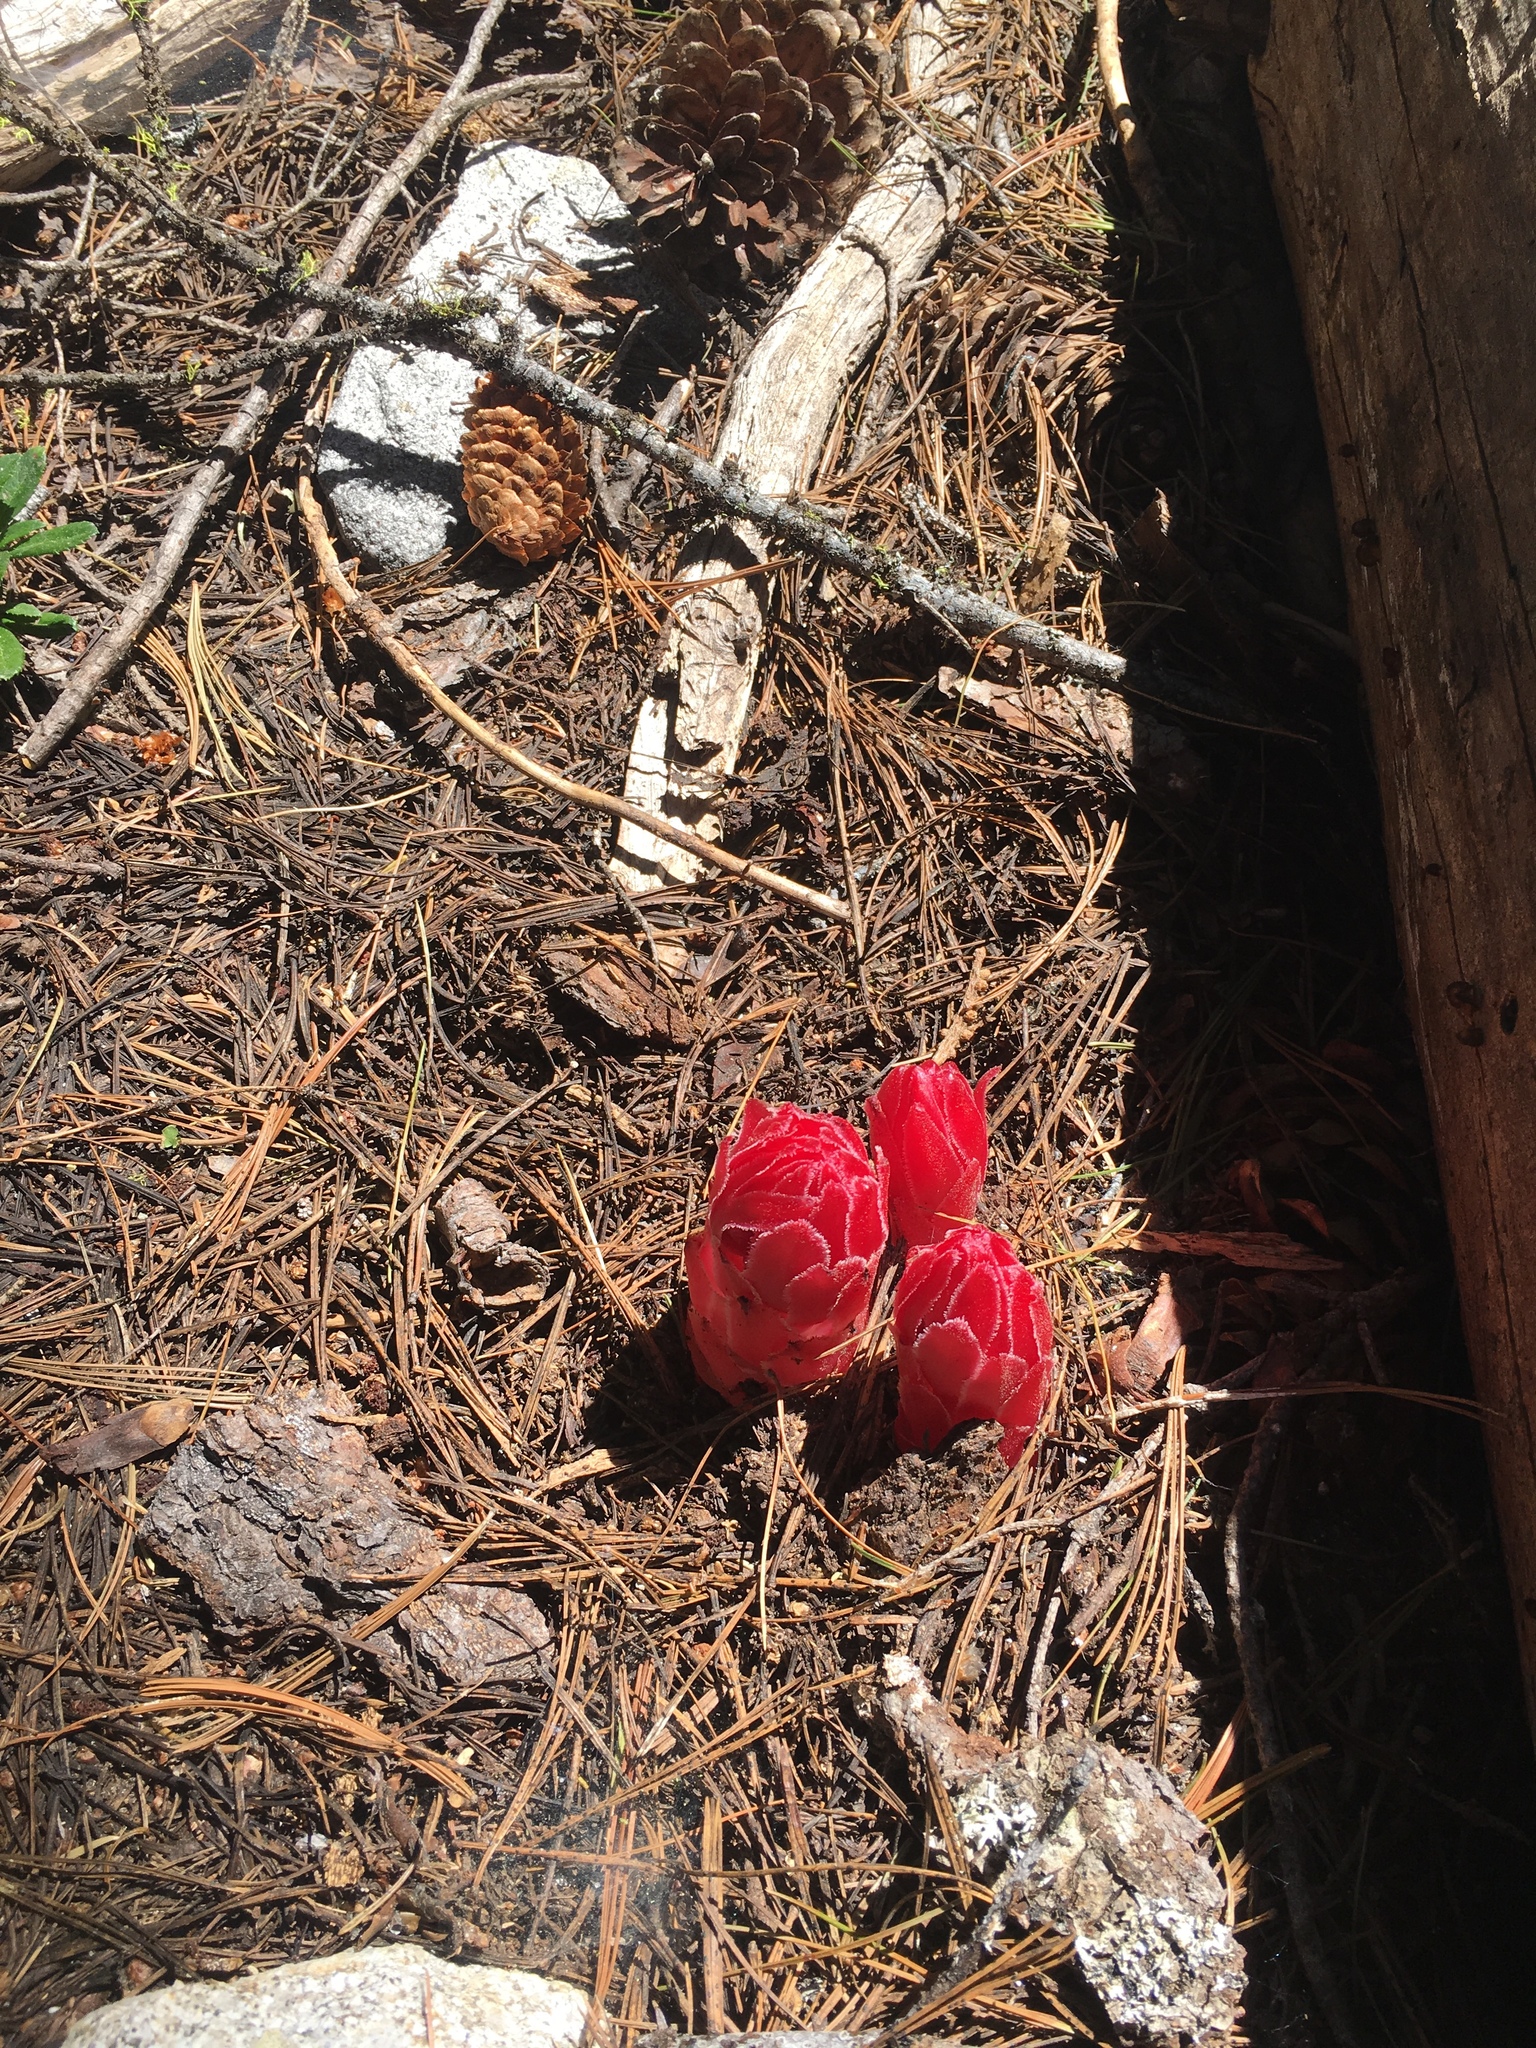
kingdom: Plantae
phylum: Tracheophyta
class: Magnoliopsida
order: Ericales
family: Ericaceae
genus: Sarcodes
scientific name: Sarcodes sanguinea
